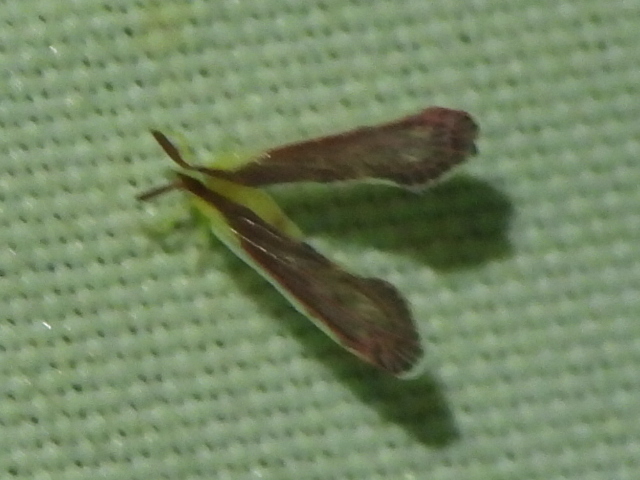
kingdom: Animalia
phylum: Arthropoda
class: Insecta
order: Hemiptera
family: Derbidae
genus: Anotia
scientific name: Anotia firebugia
